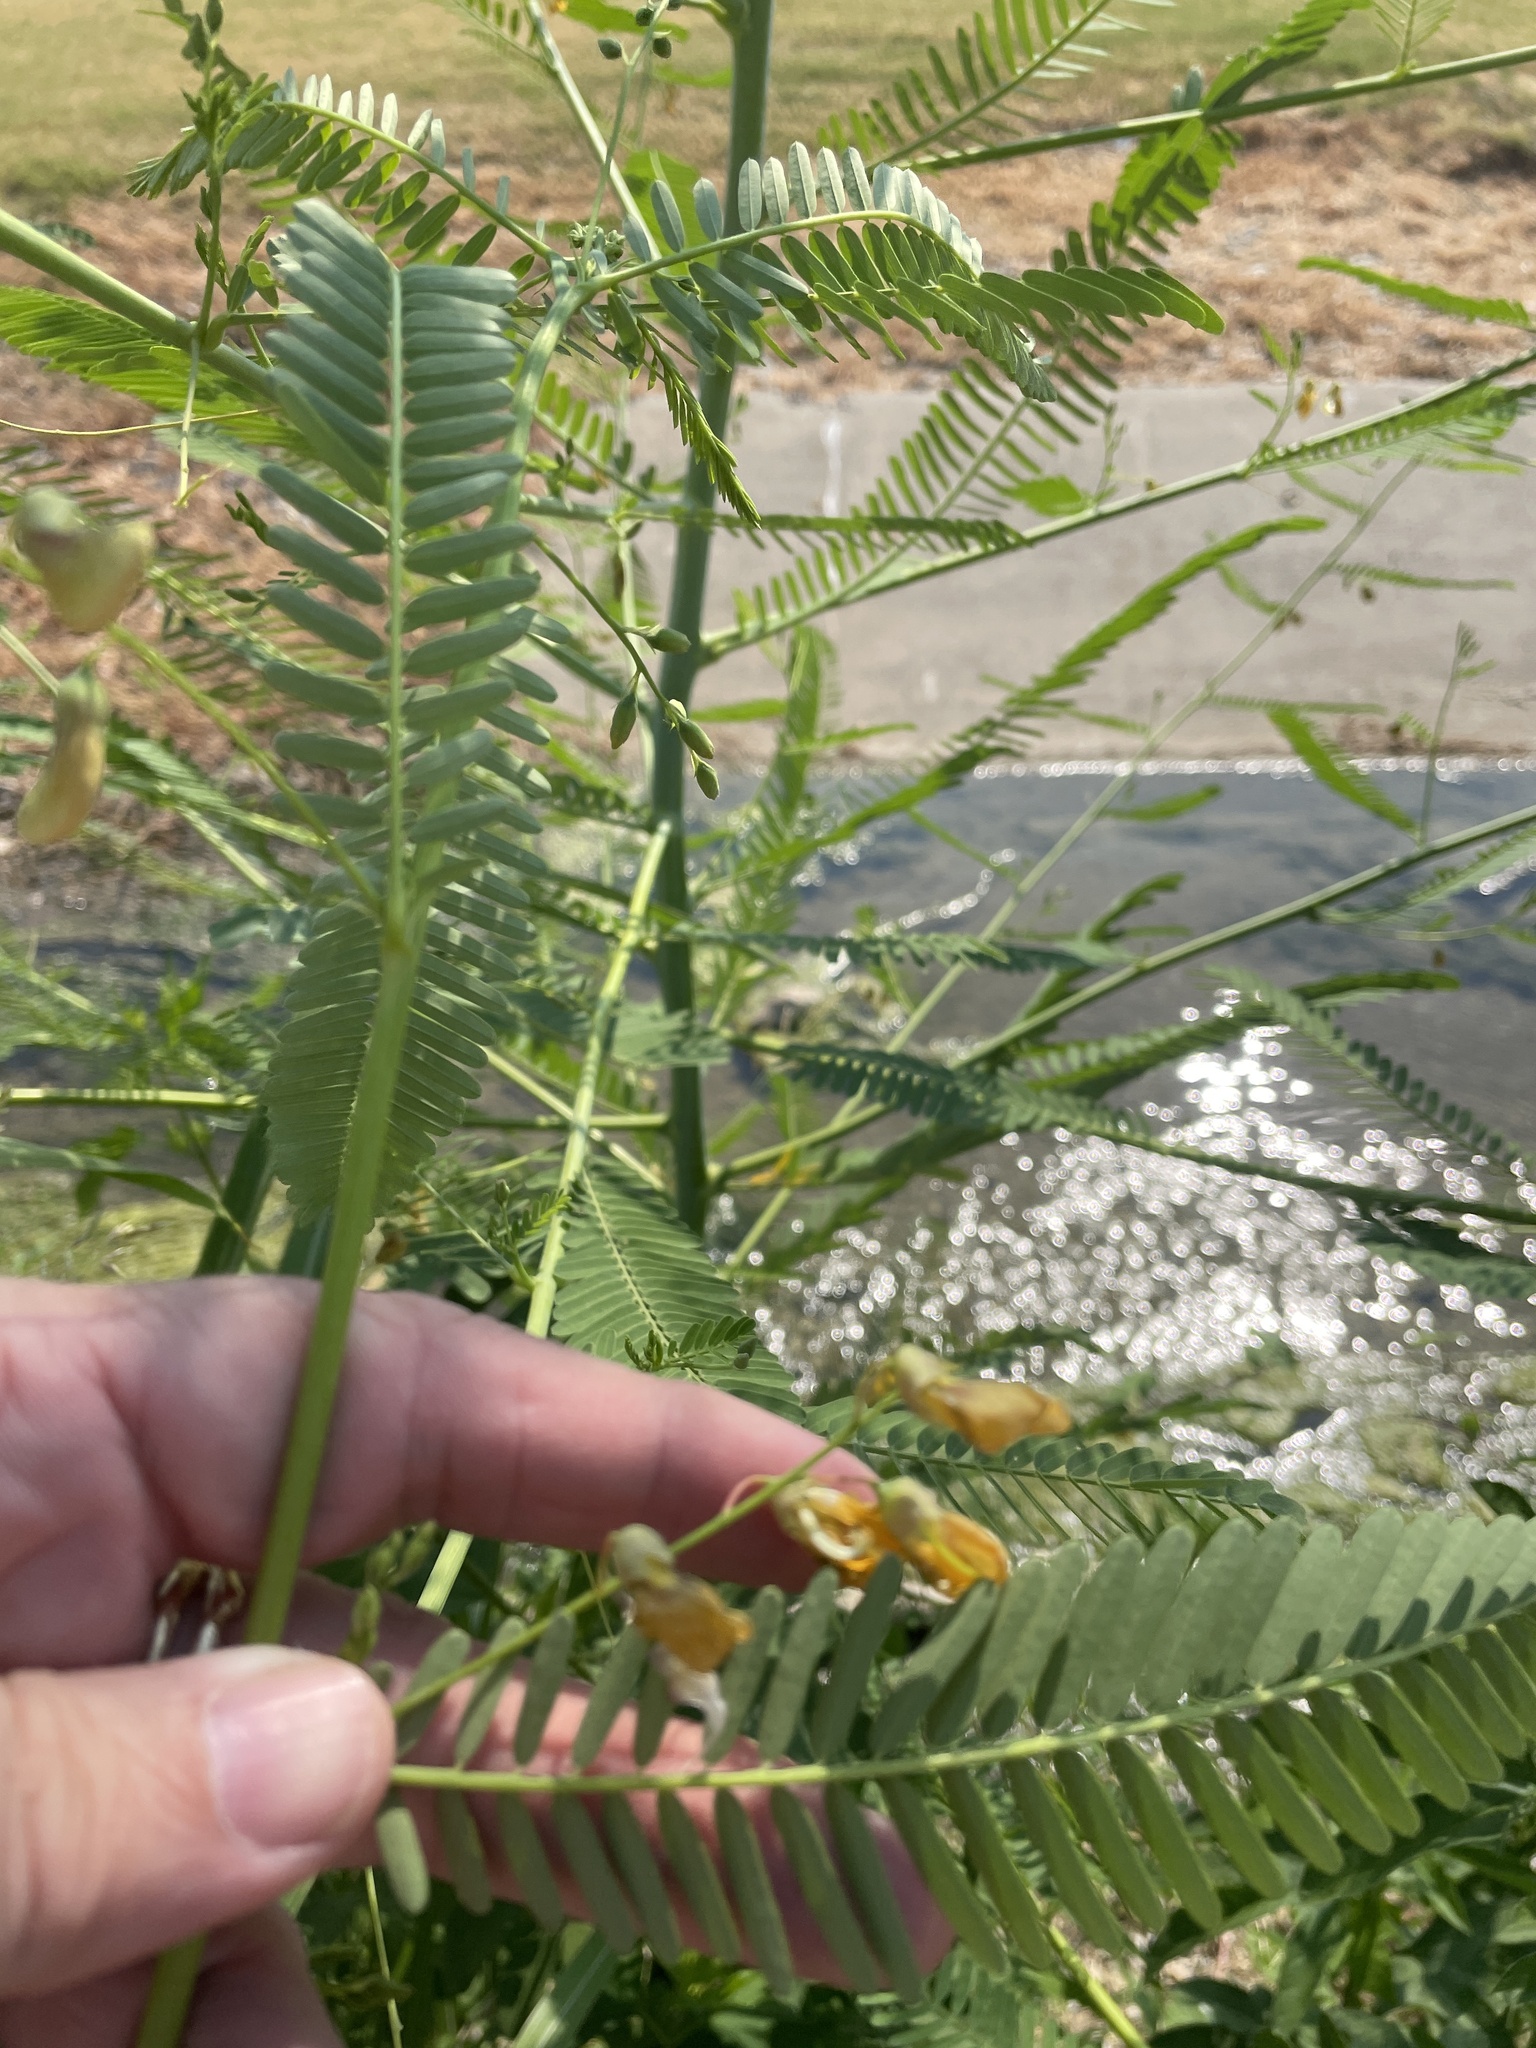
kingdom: Plantae
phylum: Tracheophyta
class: Magnoliopsida
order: Fabales
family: Fabaceae
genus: Sesbania
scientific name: Sesbania herbacea
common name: Bigpod sesbania
